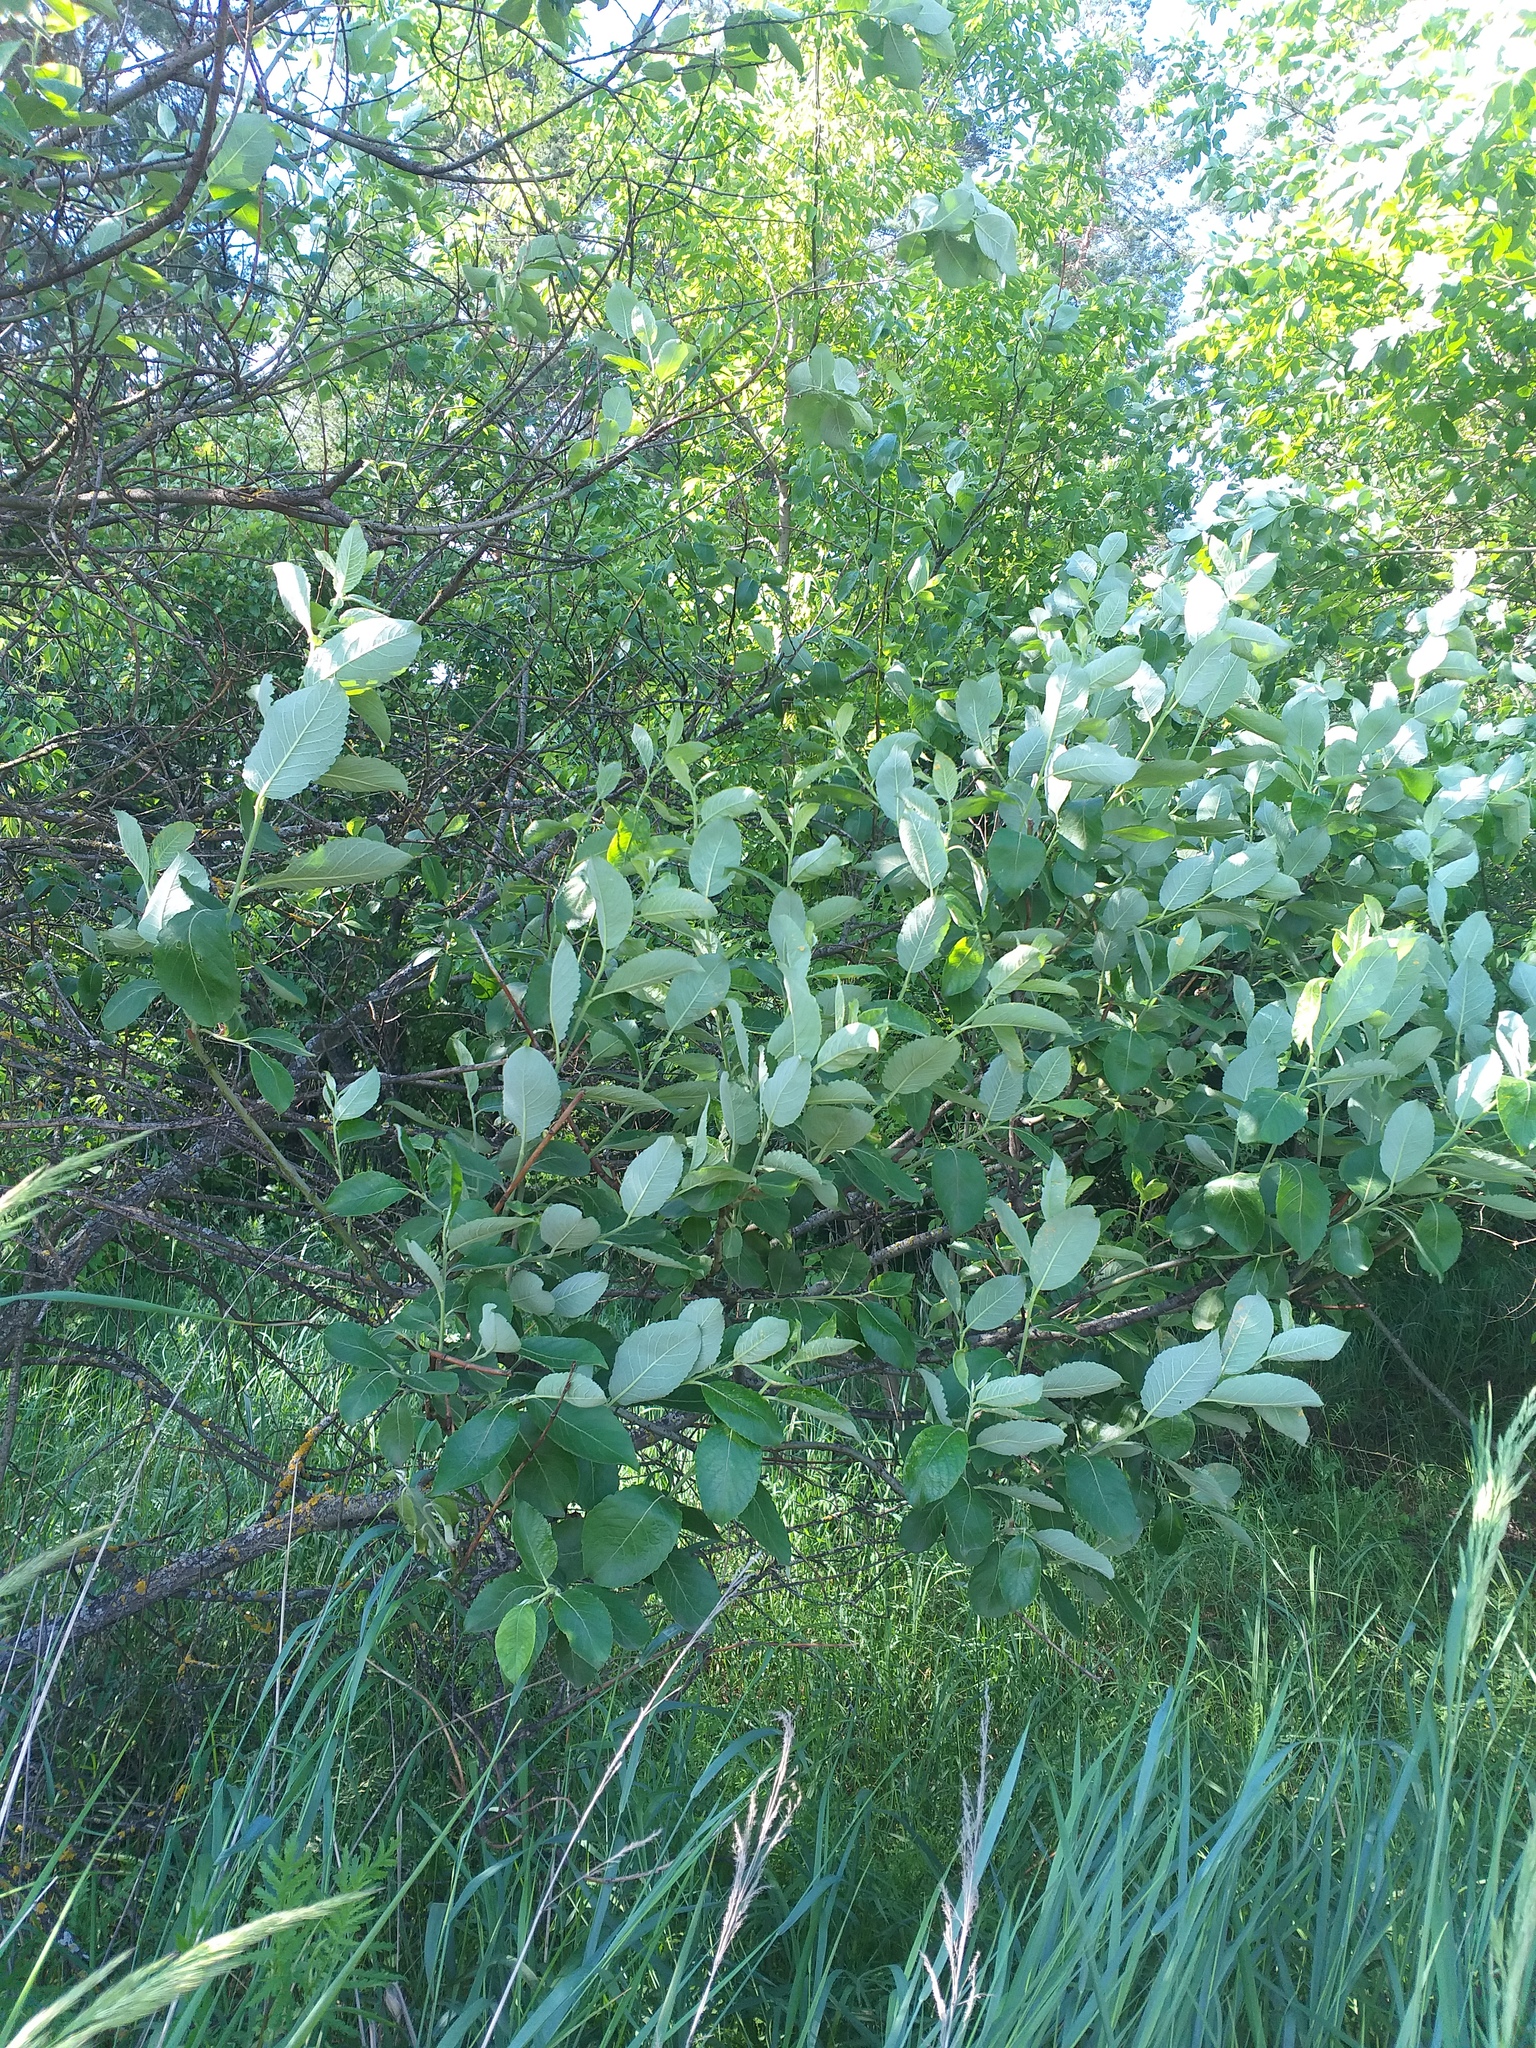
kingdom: Plantae
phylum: Tracheophyta
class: Magnoliopsida
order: Malpighiales
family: Salicaceae
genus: Salix
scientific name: Salix caprea
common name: Goat willow
